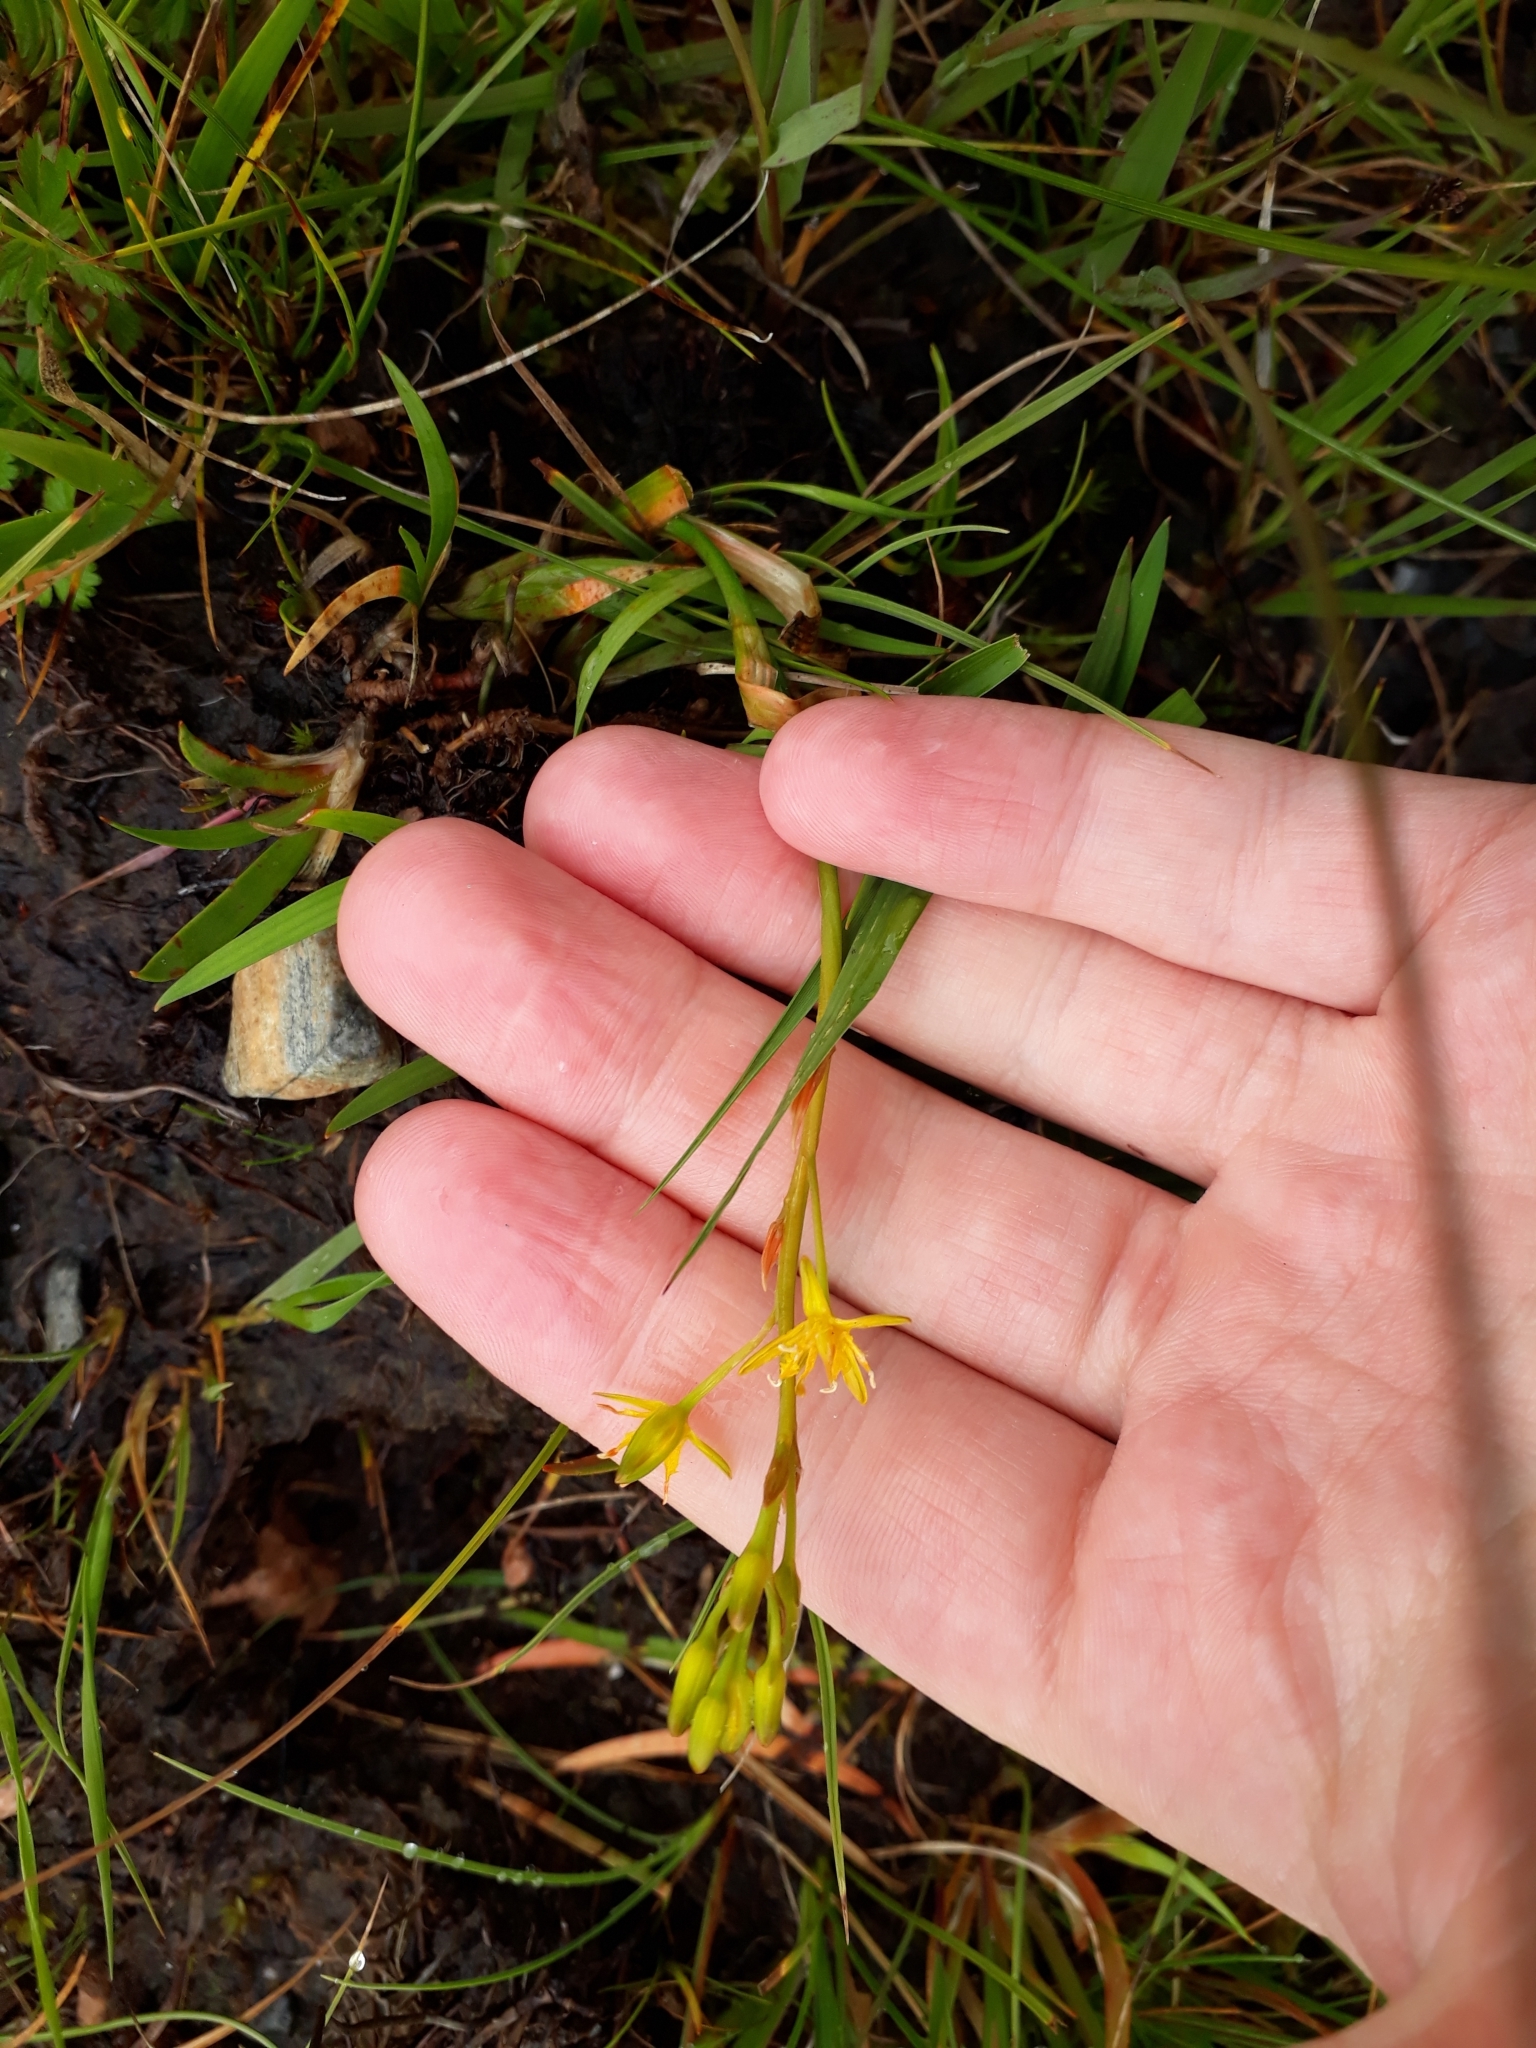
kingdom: Plantae
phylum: Tracheophyta
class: Liliopsida
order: Dioscoreales
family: Nartheciaceae
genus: Narthecium
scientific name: Narthecium ossifragum
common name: Bog asphodel
